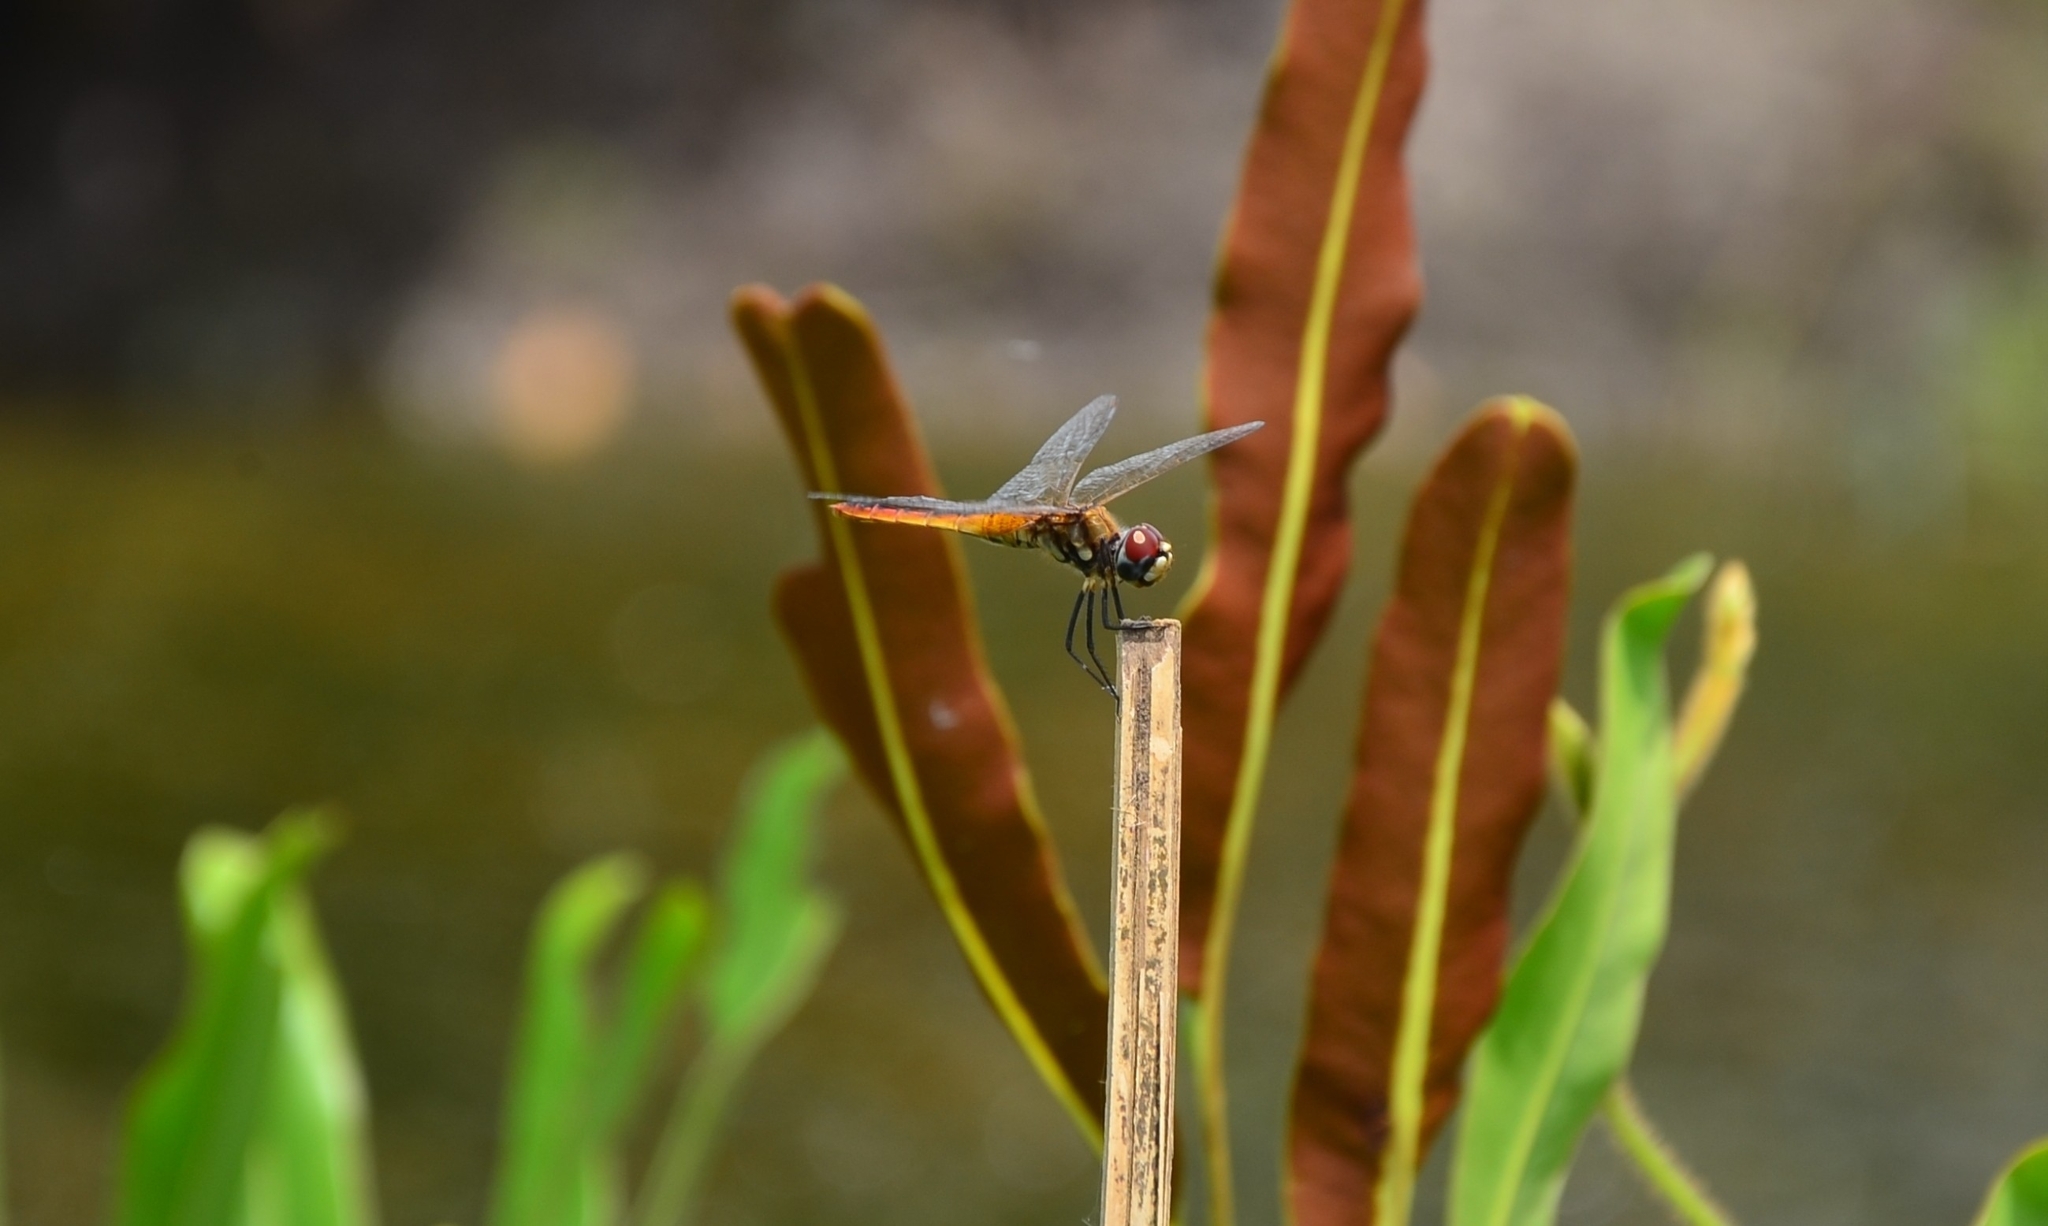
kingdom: Animalia
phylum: Arthropoda
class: Insecta
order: Odonata
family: Libellulidae
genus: Macrodiplax
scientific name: Macrodiplax cora
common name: Coastal glider
